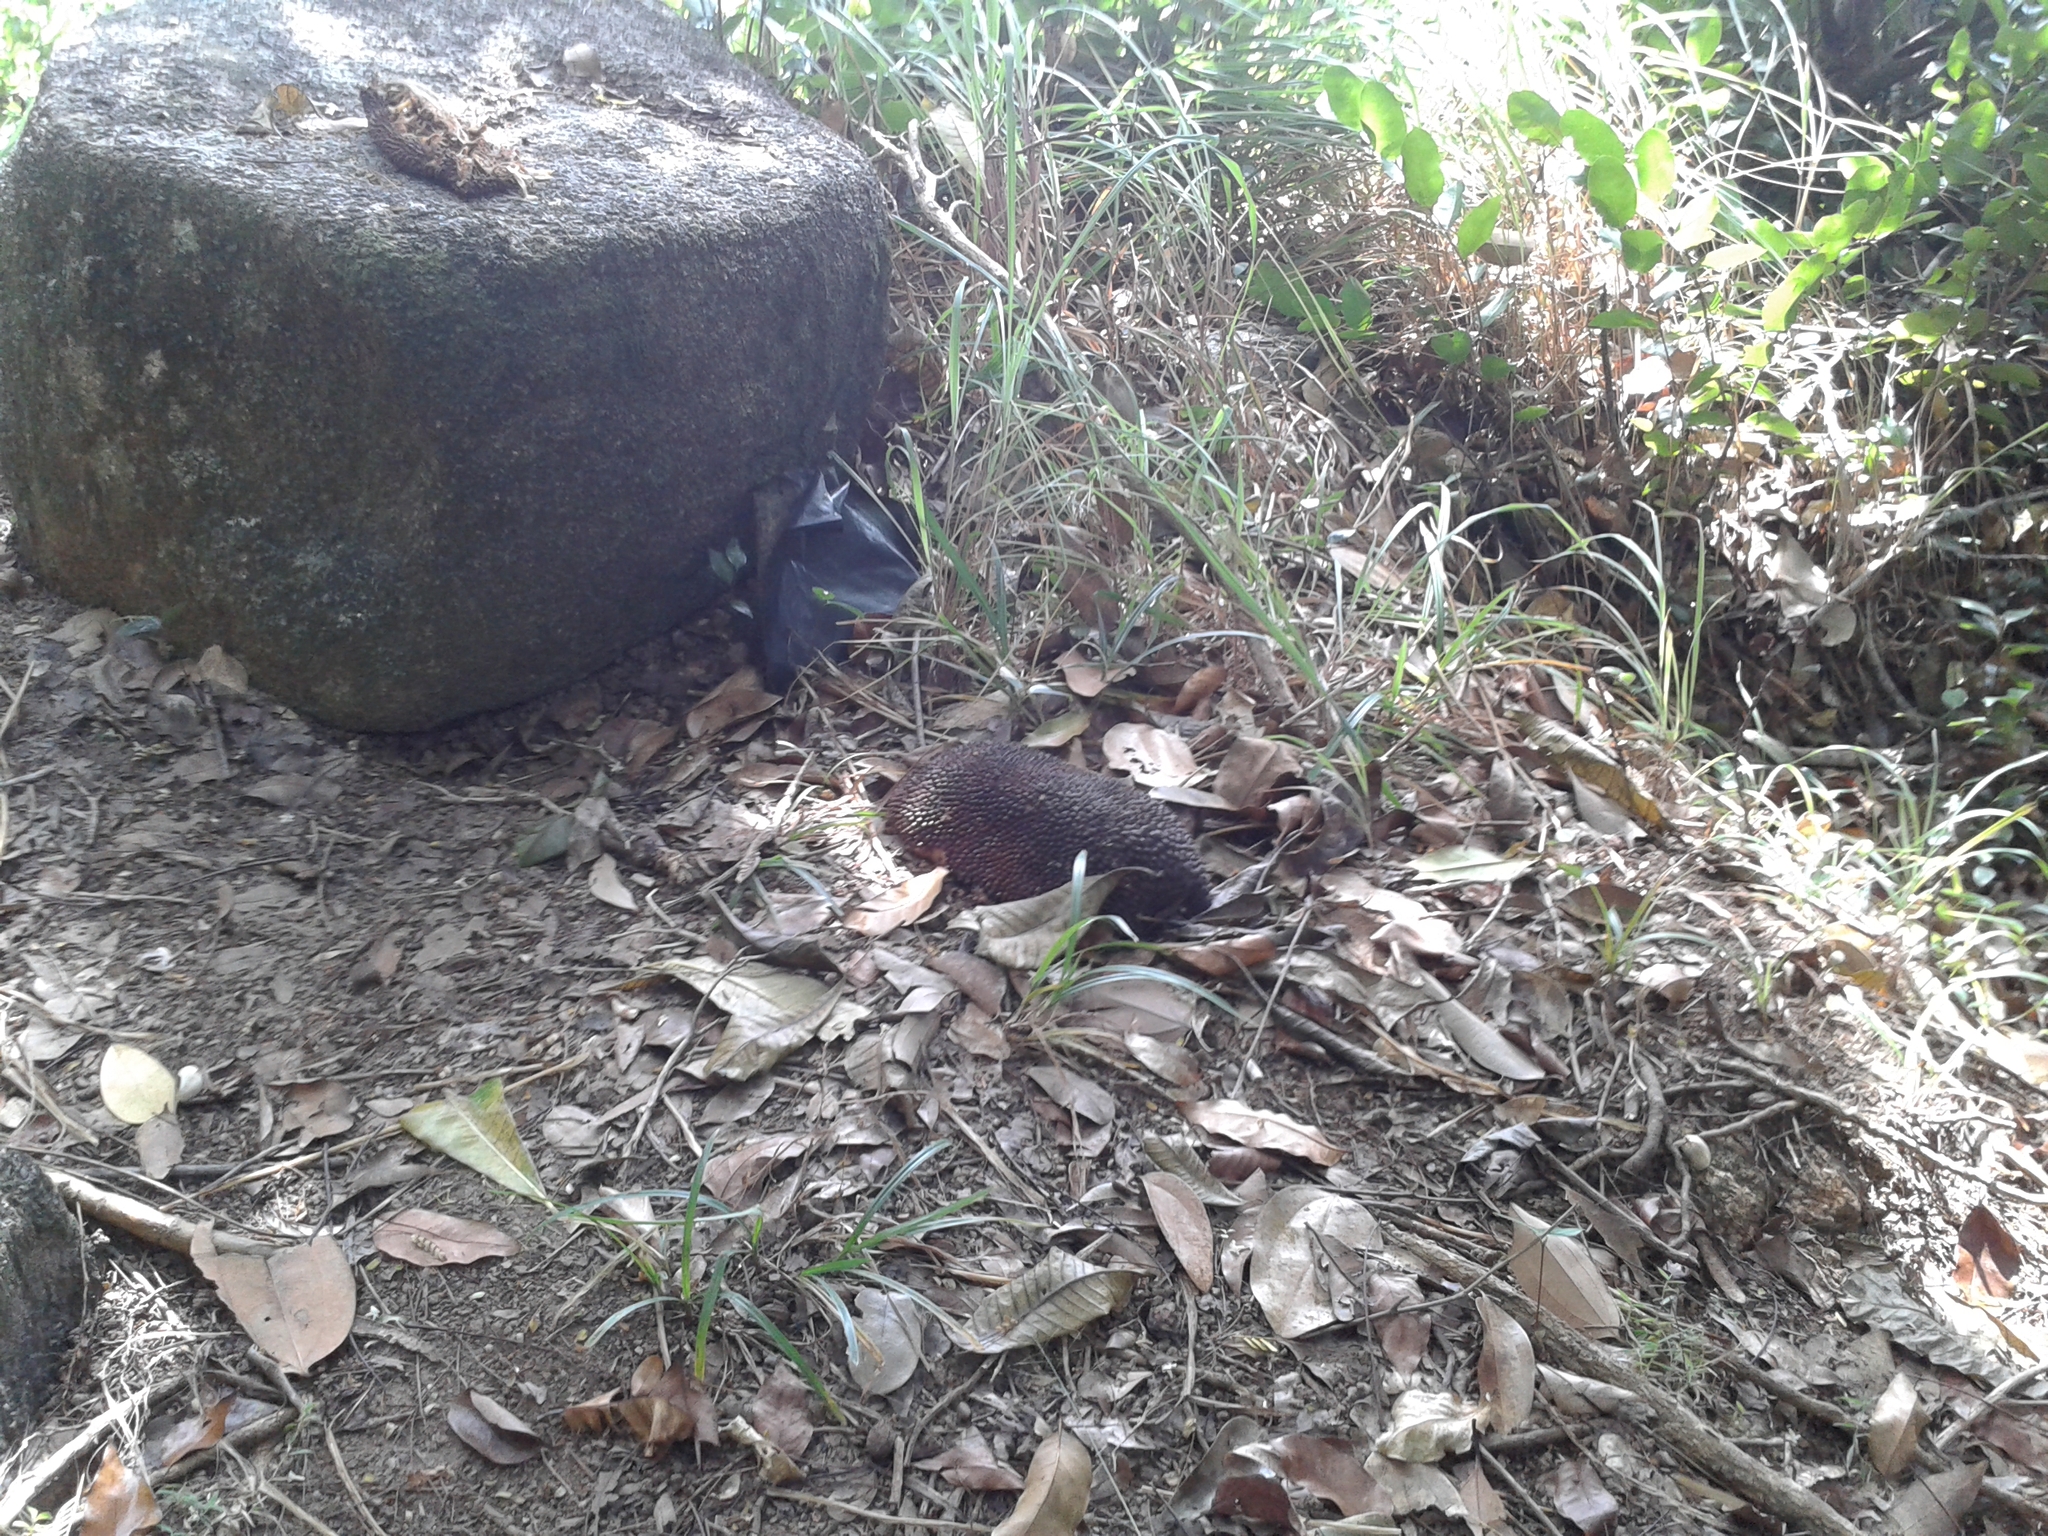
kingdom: Plantae
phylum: Tracheophyta
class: Magnoliopsida
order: Rosales
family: Moraceae
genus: Artocarpus
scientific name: Artocarpus heterophyllus
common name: Jackfruit
